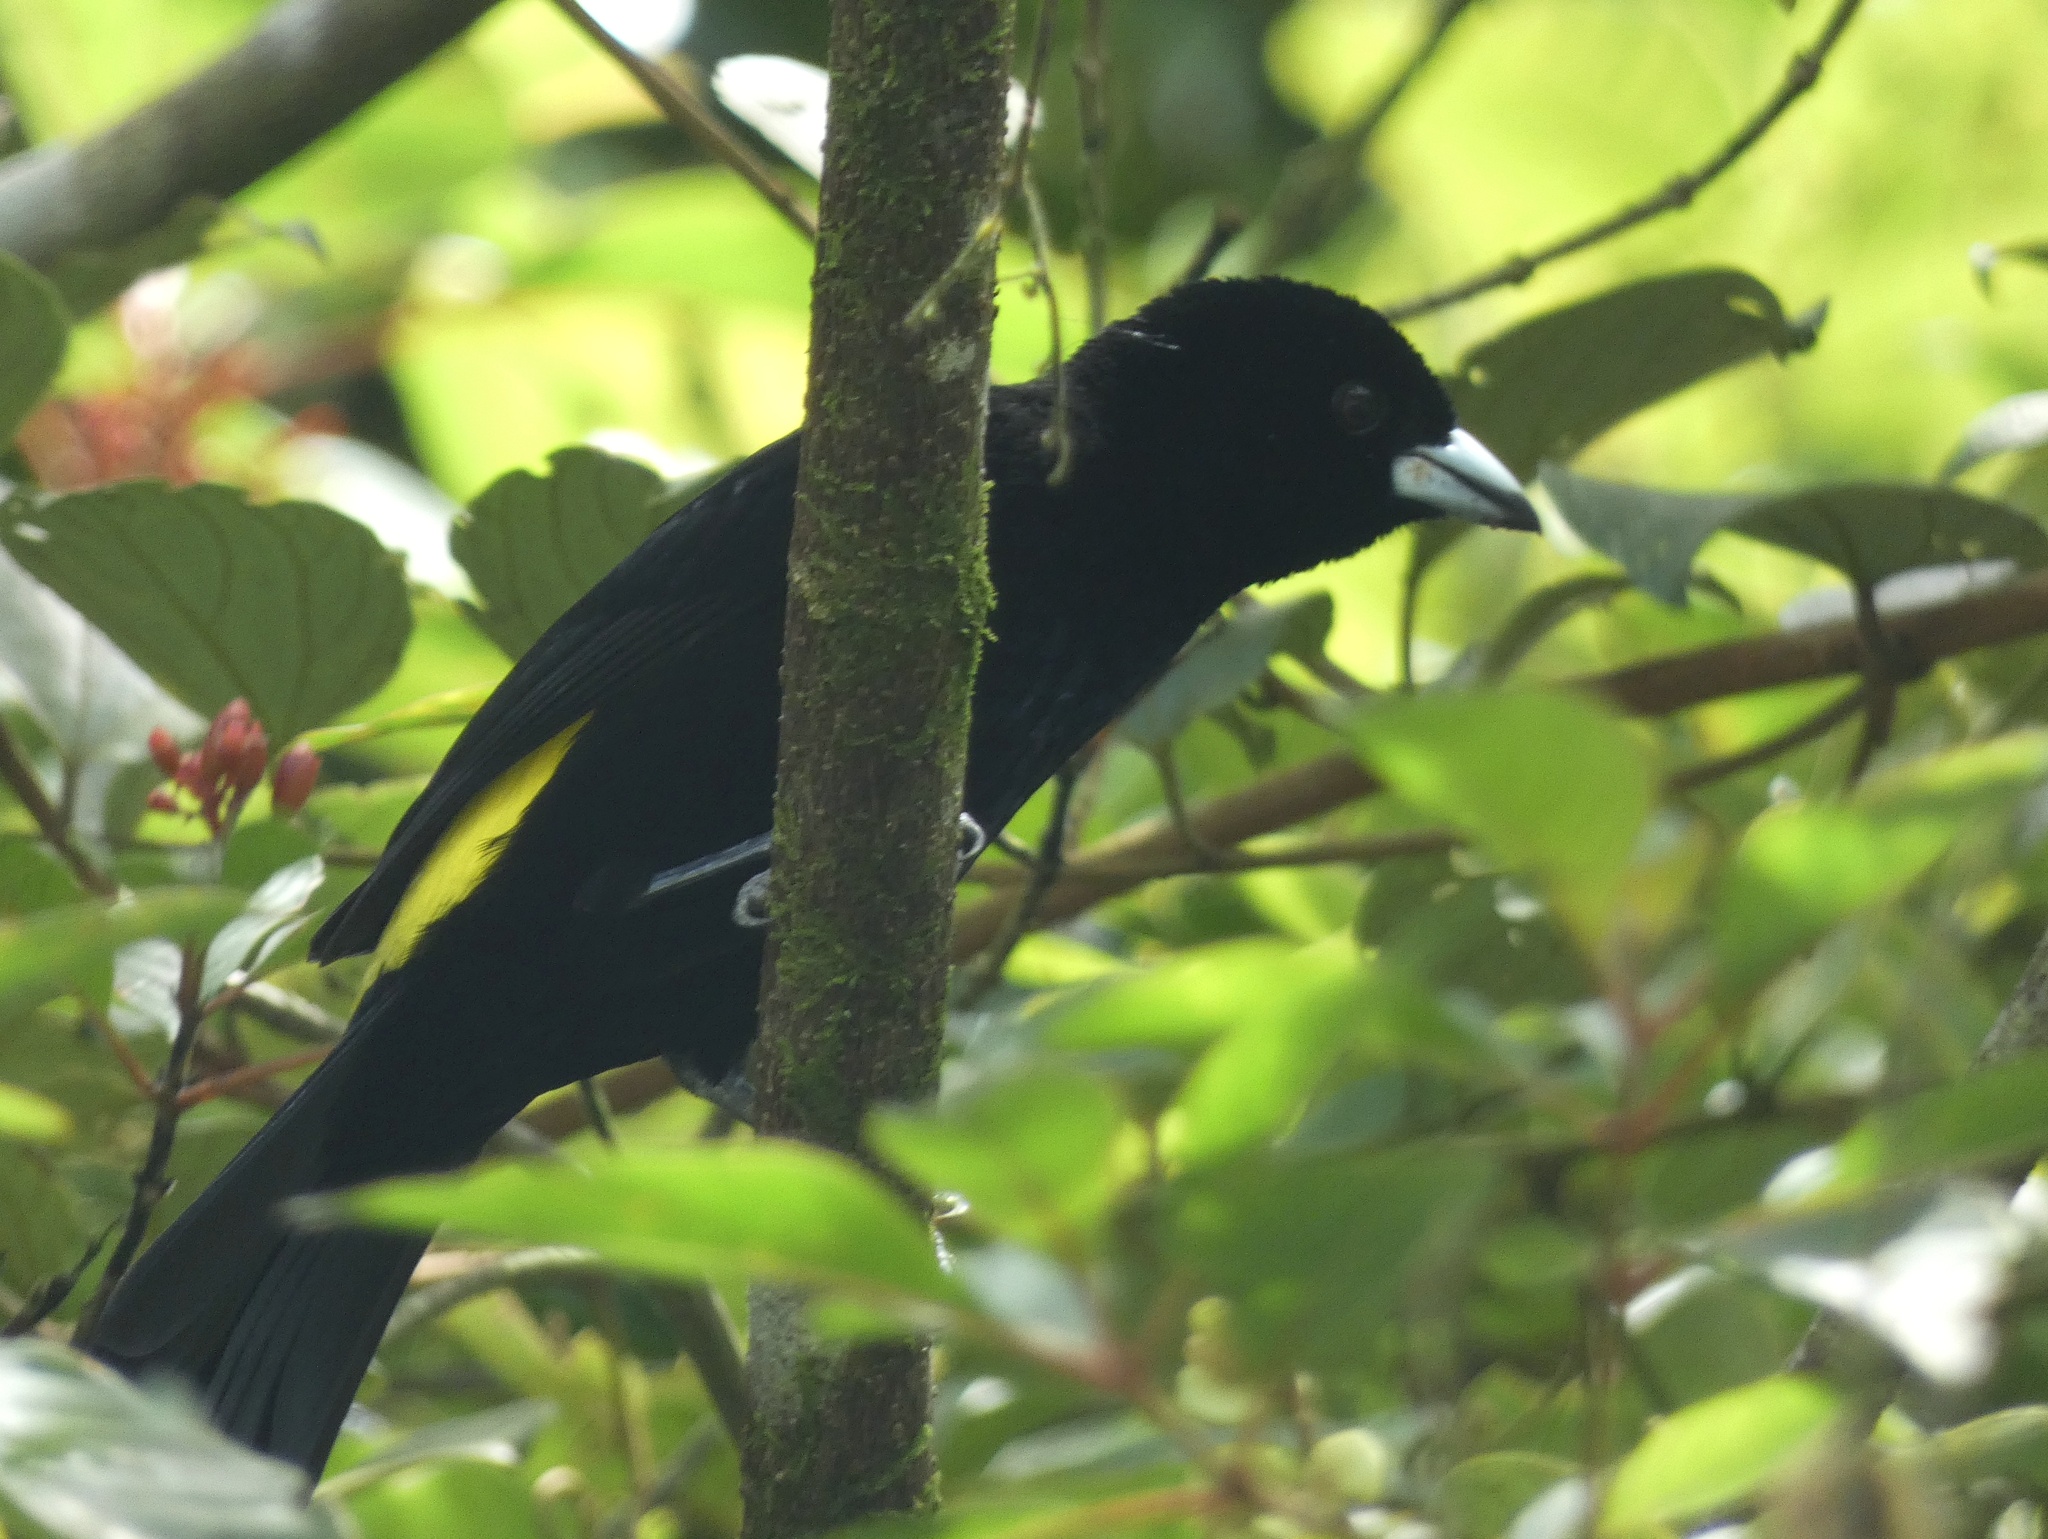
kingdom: Animalia
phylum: Chordata
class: Aves
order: Passeriformes
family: Thraupidae
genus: Ramphocelus
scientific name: Ramphocelus icteronotus
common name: Lemon-rumped tanager
